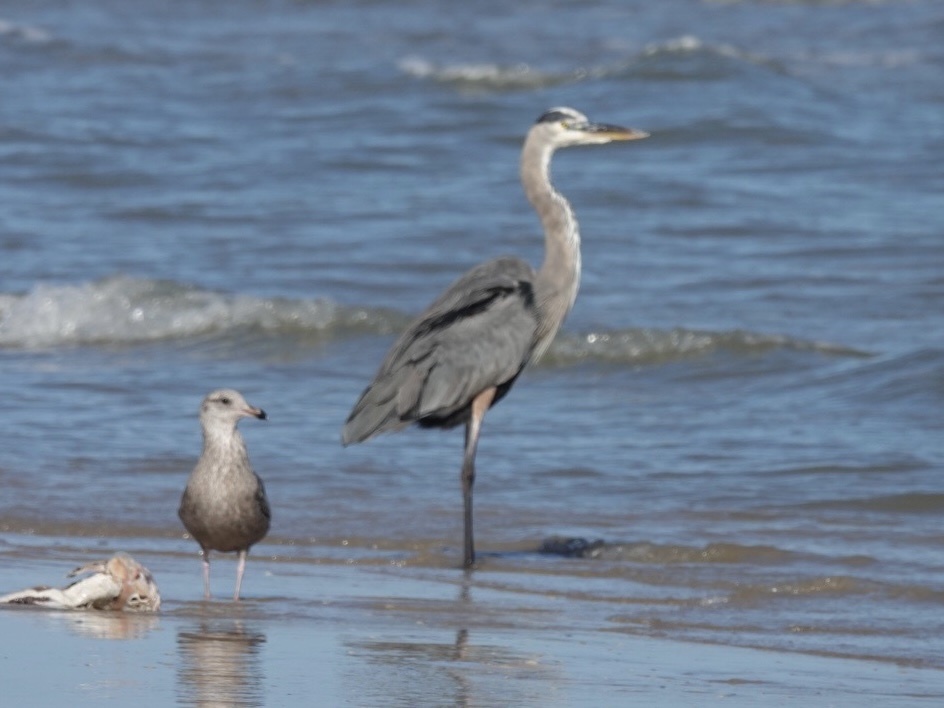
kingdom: Animalia
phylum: Chordata
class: Aves
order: Pelecaniformes
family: Ardeidae
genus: Ardea
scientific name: Ardea herodias
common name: Great blue heron
